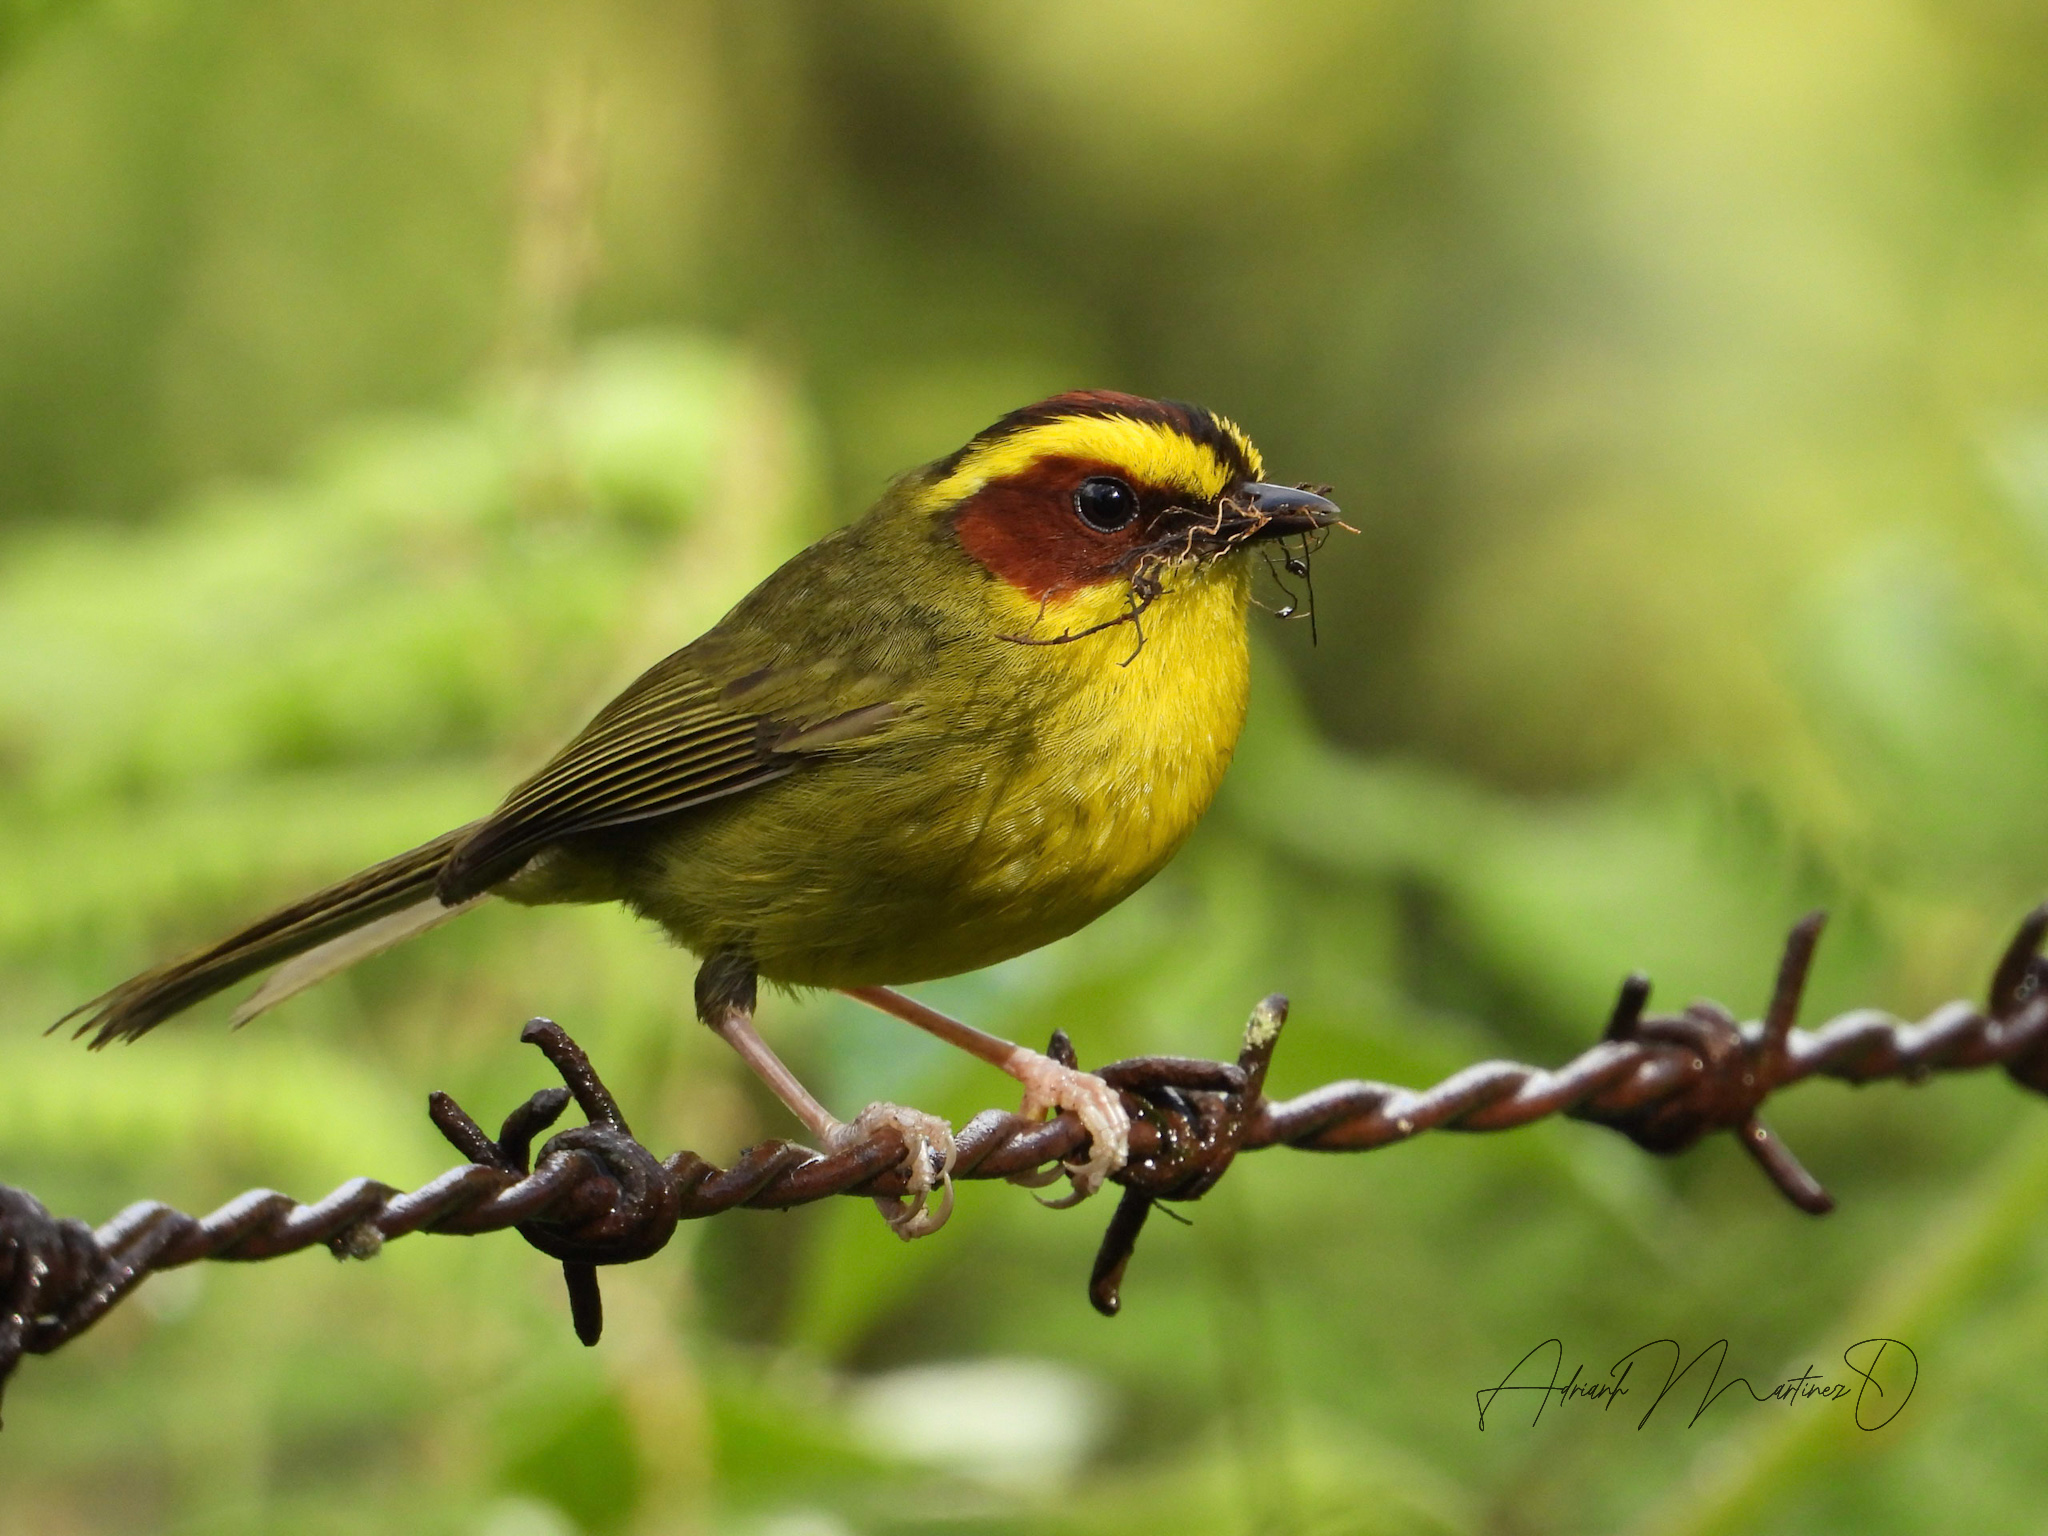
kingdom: Animalia
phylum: Chordata
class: Aves
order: Passeriformes
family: Parulidae
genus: Basileuterus
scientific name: Basileuterus belli
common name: Golden-browed warbler
